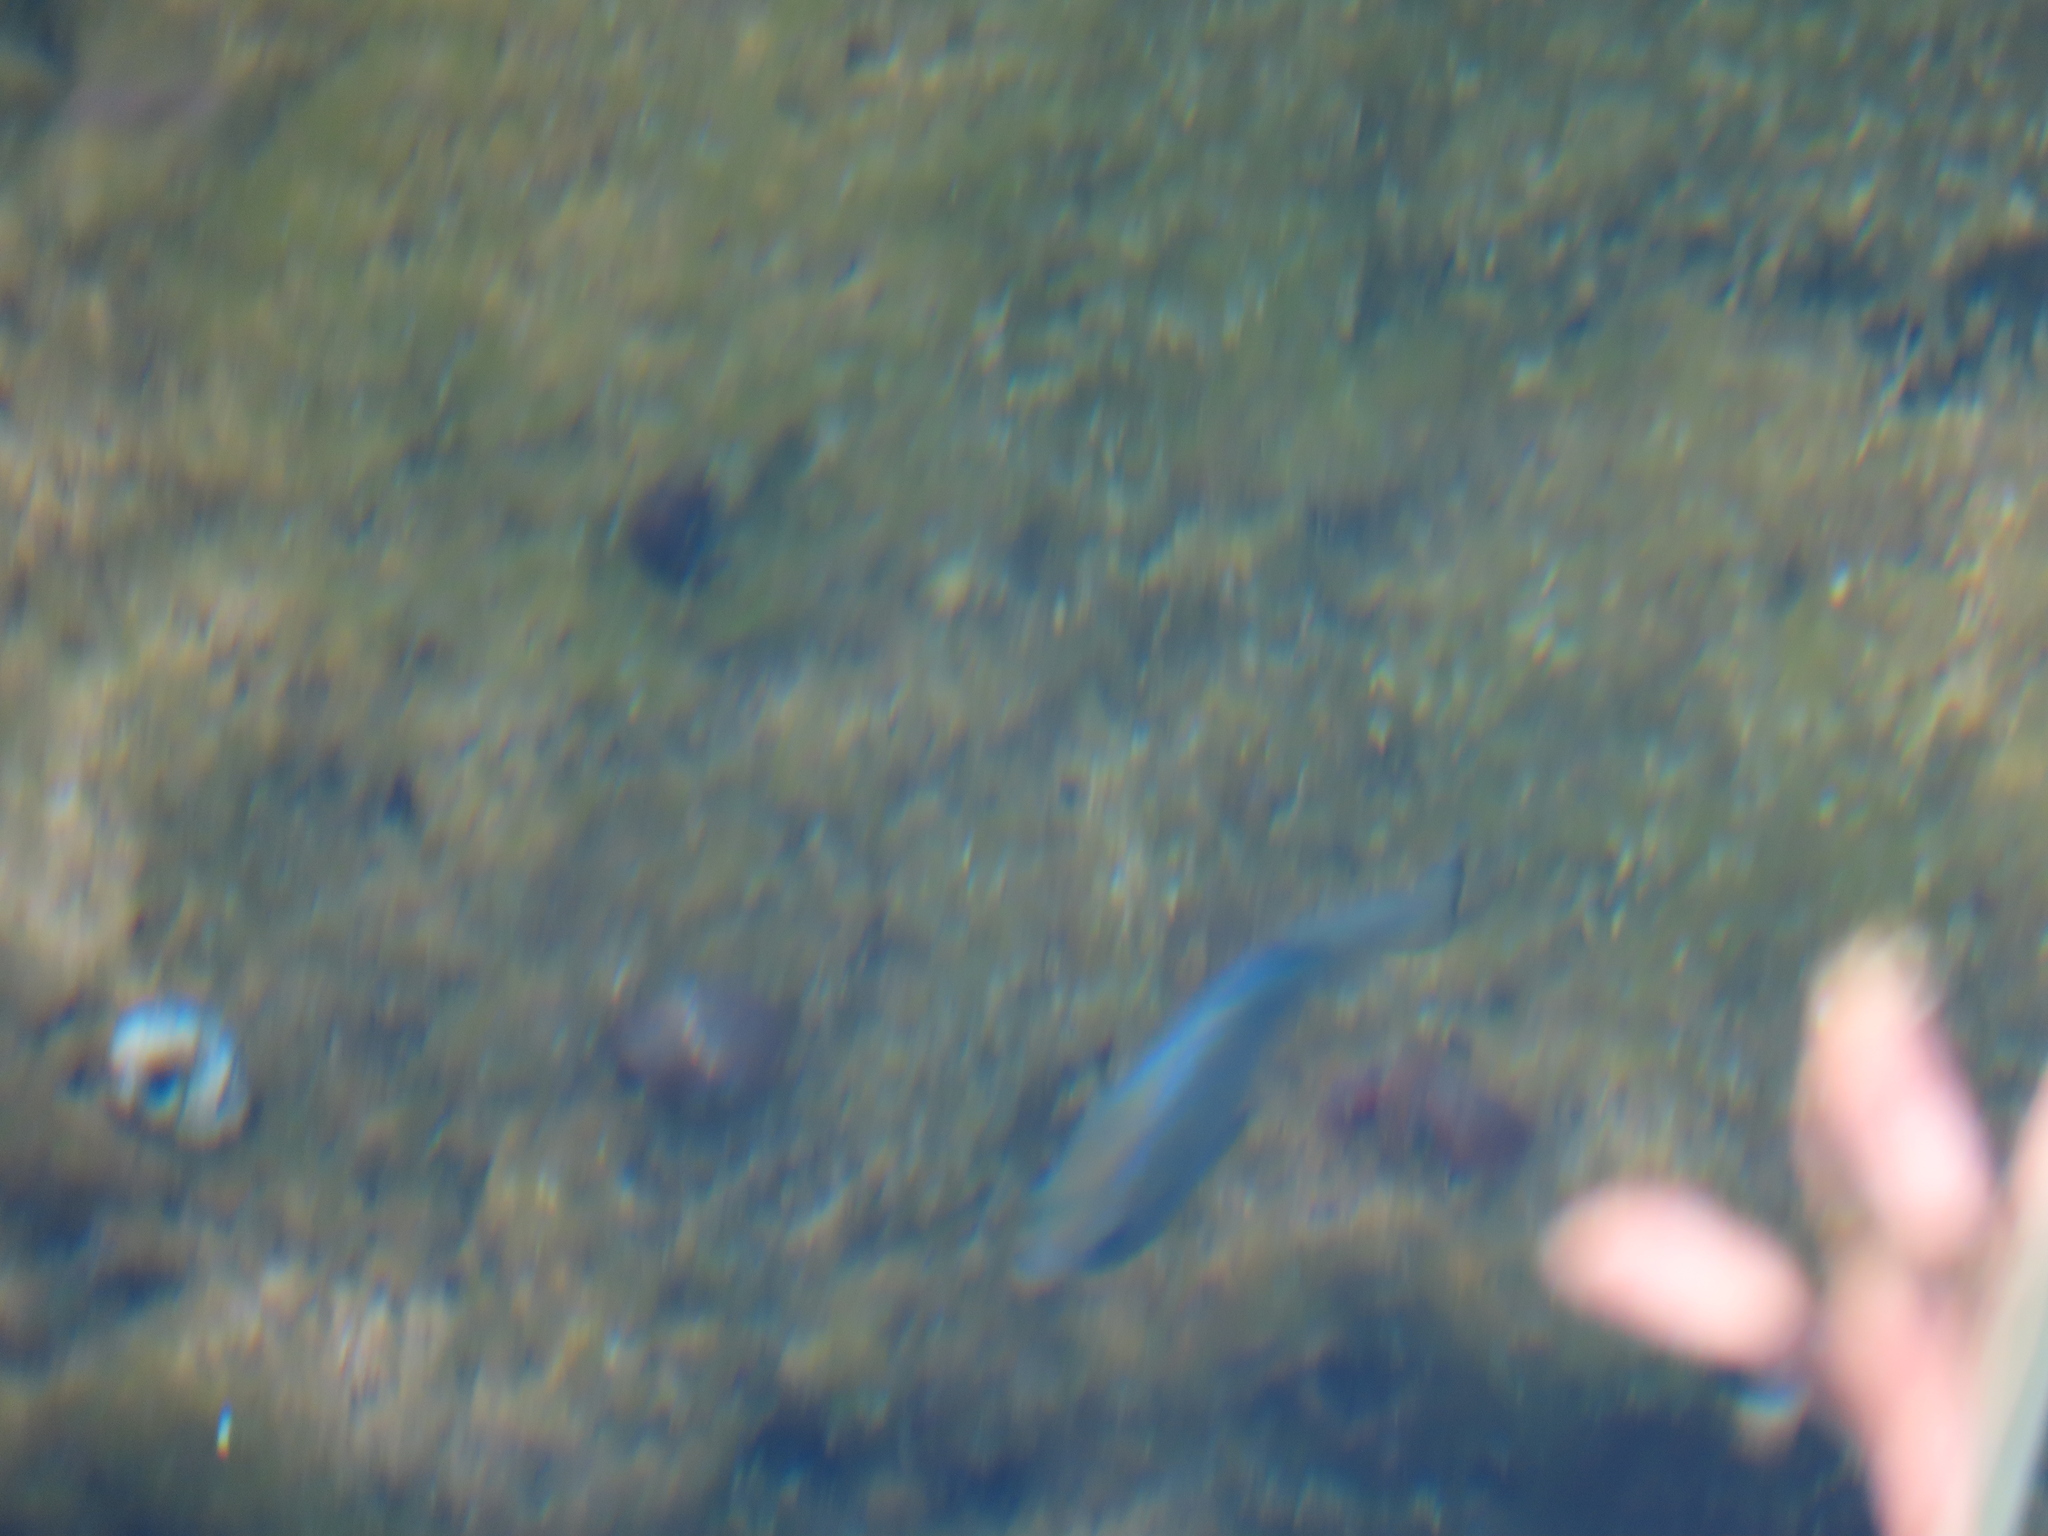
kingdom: Animalia
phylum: Chordata
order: Cyprinodontiformes
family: Cyprinodontidae
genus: Cyprinodon
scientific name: Cyprinodon nevadensis
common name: Amargosa pupfish
